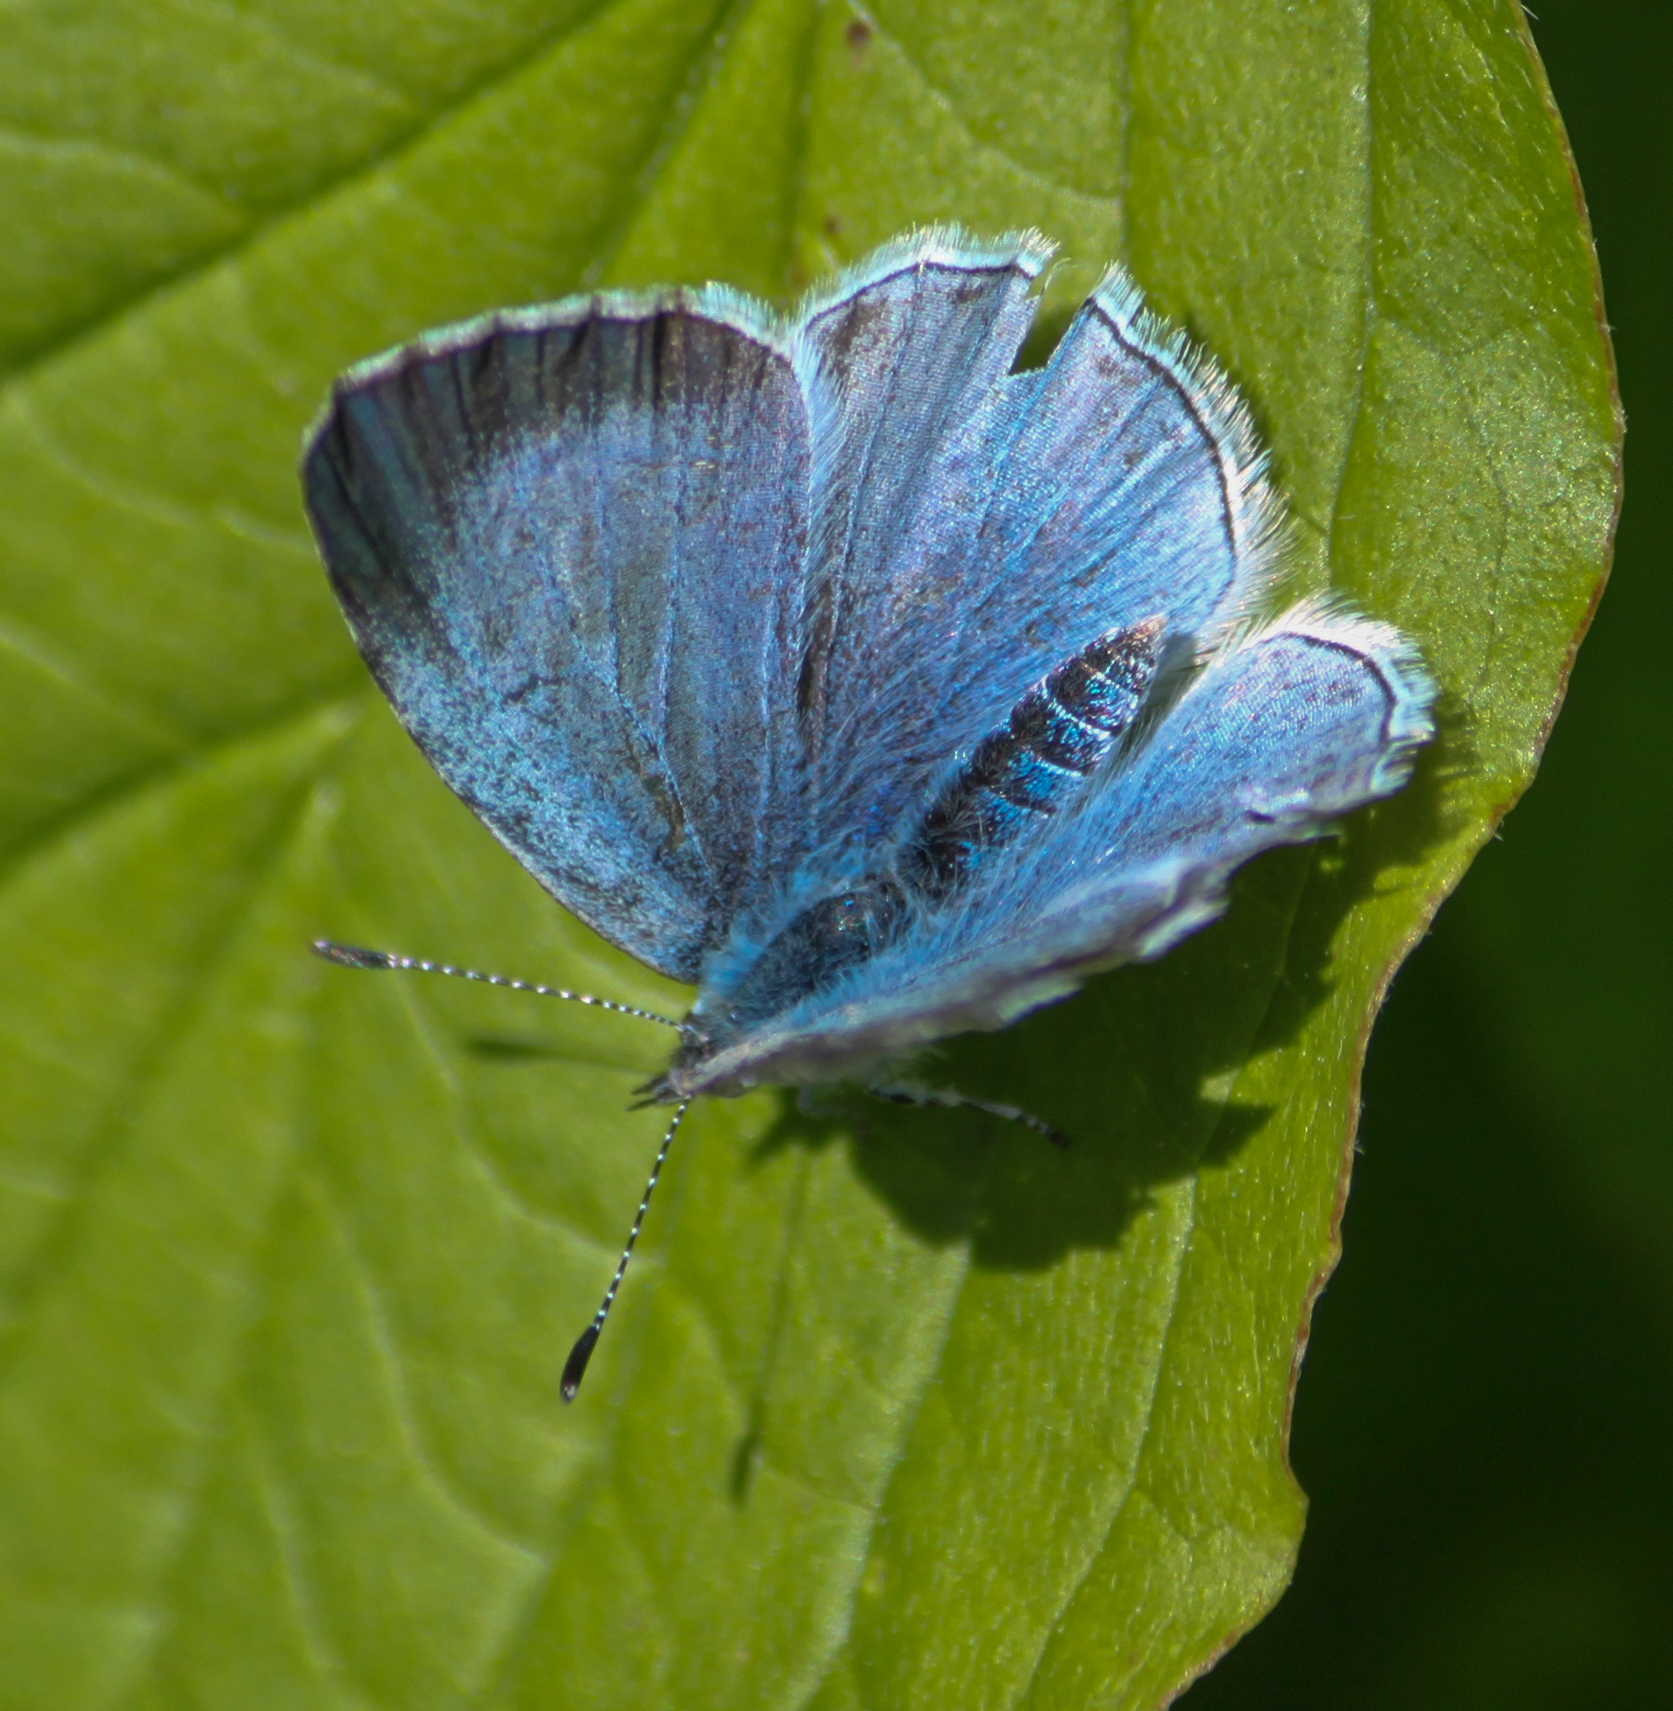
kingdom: Animalia
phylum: Arthropoda
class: Insecta
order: Lepidoptera
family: Lycaenidae
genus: Celastrina
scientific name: Celastrina argiolus
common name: Holly blue
